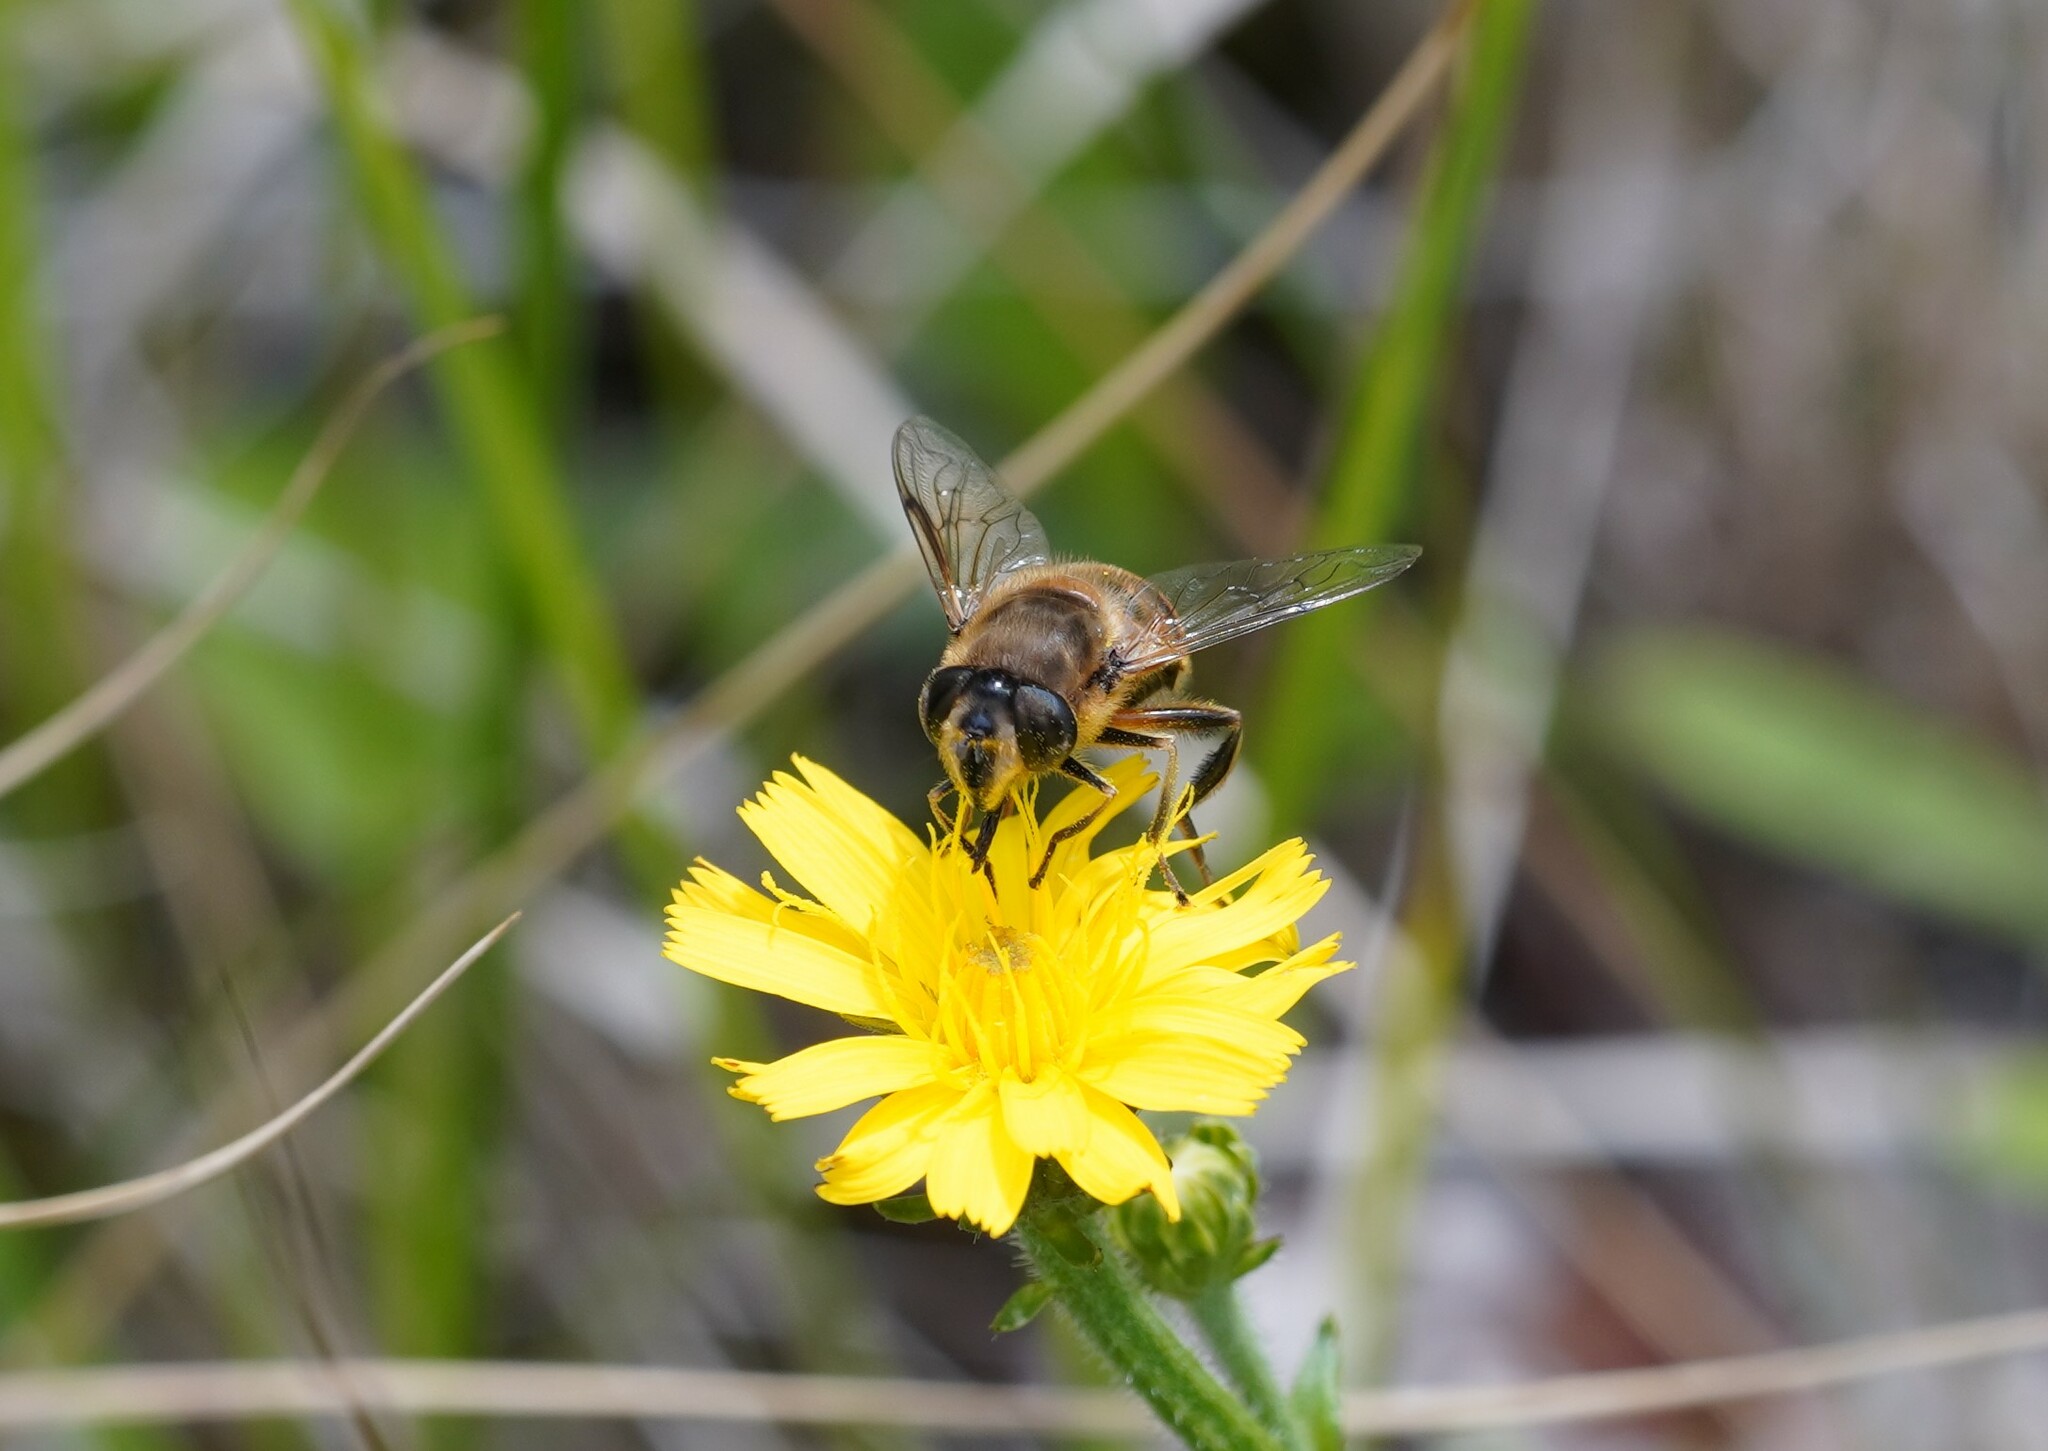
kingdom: Animalia
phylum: Arthropoda
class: Insecta
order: Diptera
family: Syrphidae
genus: Eristalis
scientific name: Eristalis tenax
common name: Drone fly
